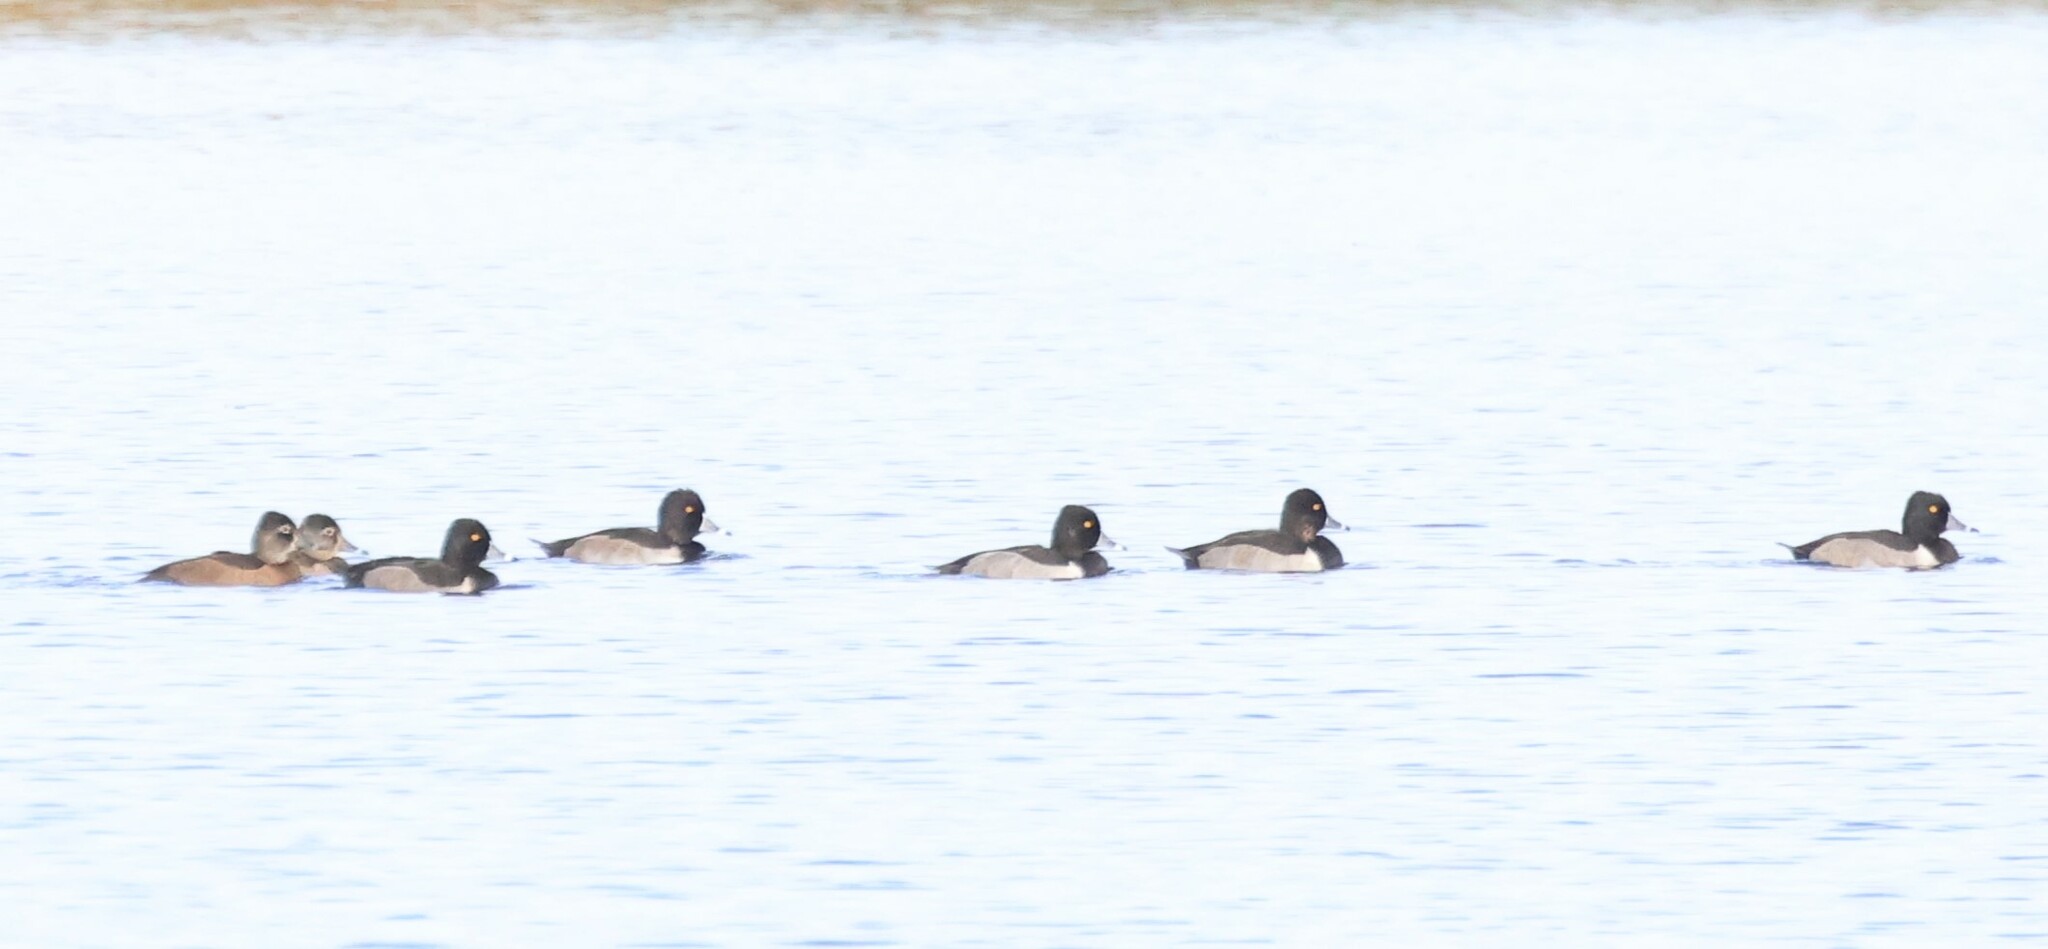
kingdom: Animalia
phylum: Chordata
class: Aves
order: Anseriformes
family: Anatidae
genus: Aythya
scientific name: Aythya collaris
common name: Ring-necked duck
